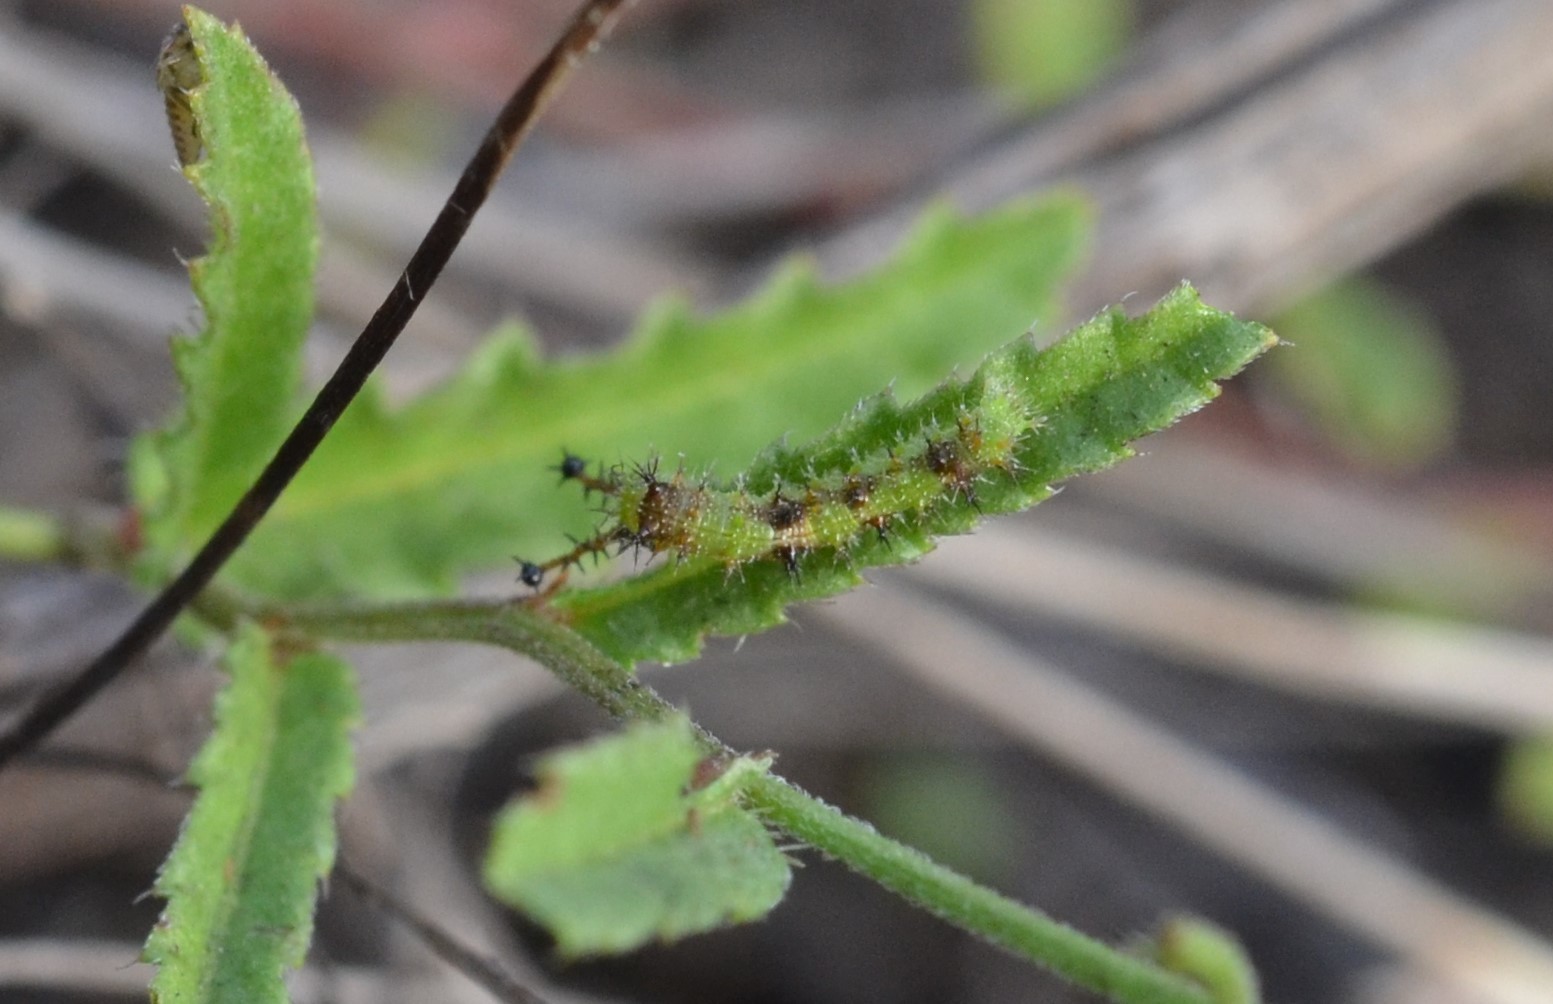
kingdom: Animalia
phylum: Arthropoda
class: Insecta
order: Lepidoptera
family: Nymphalidae
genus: Mestra
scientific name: Mestra amymone
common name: Common mestra
